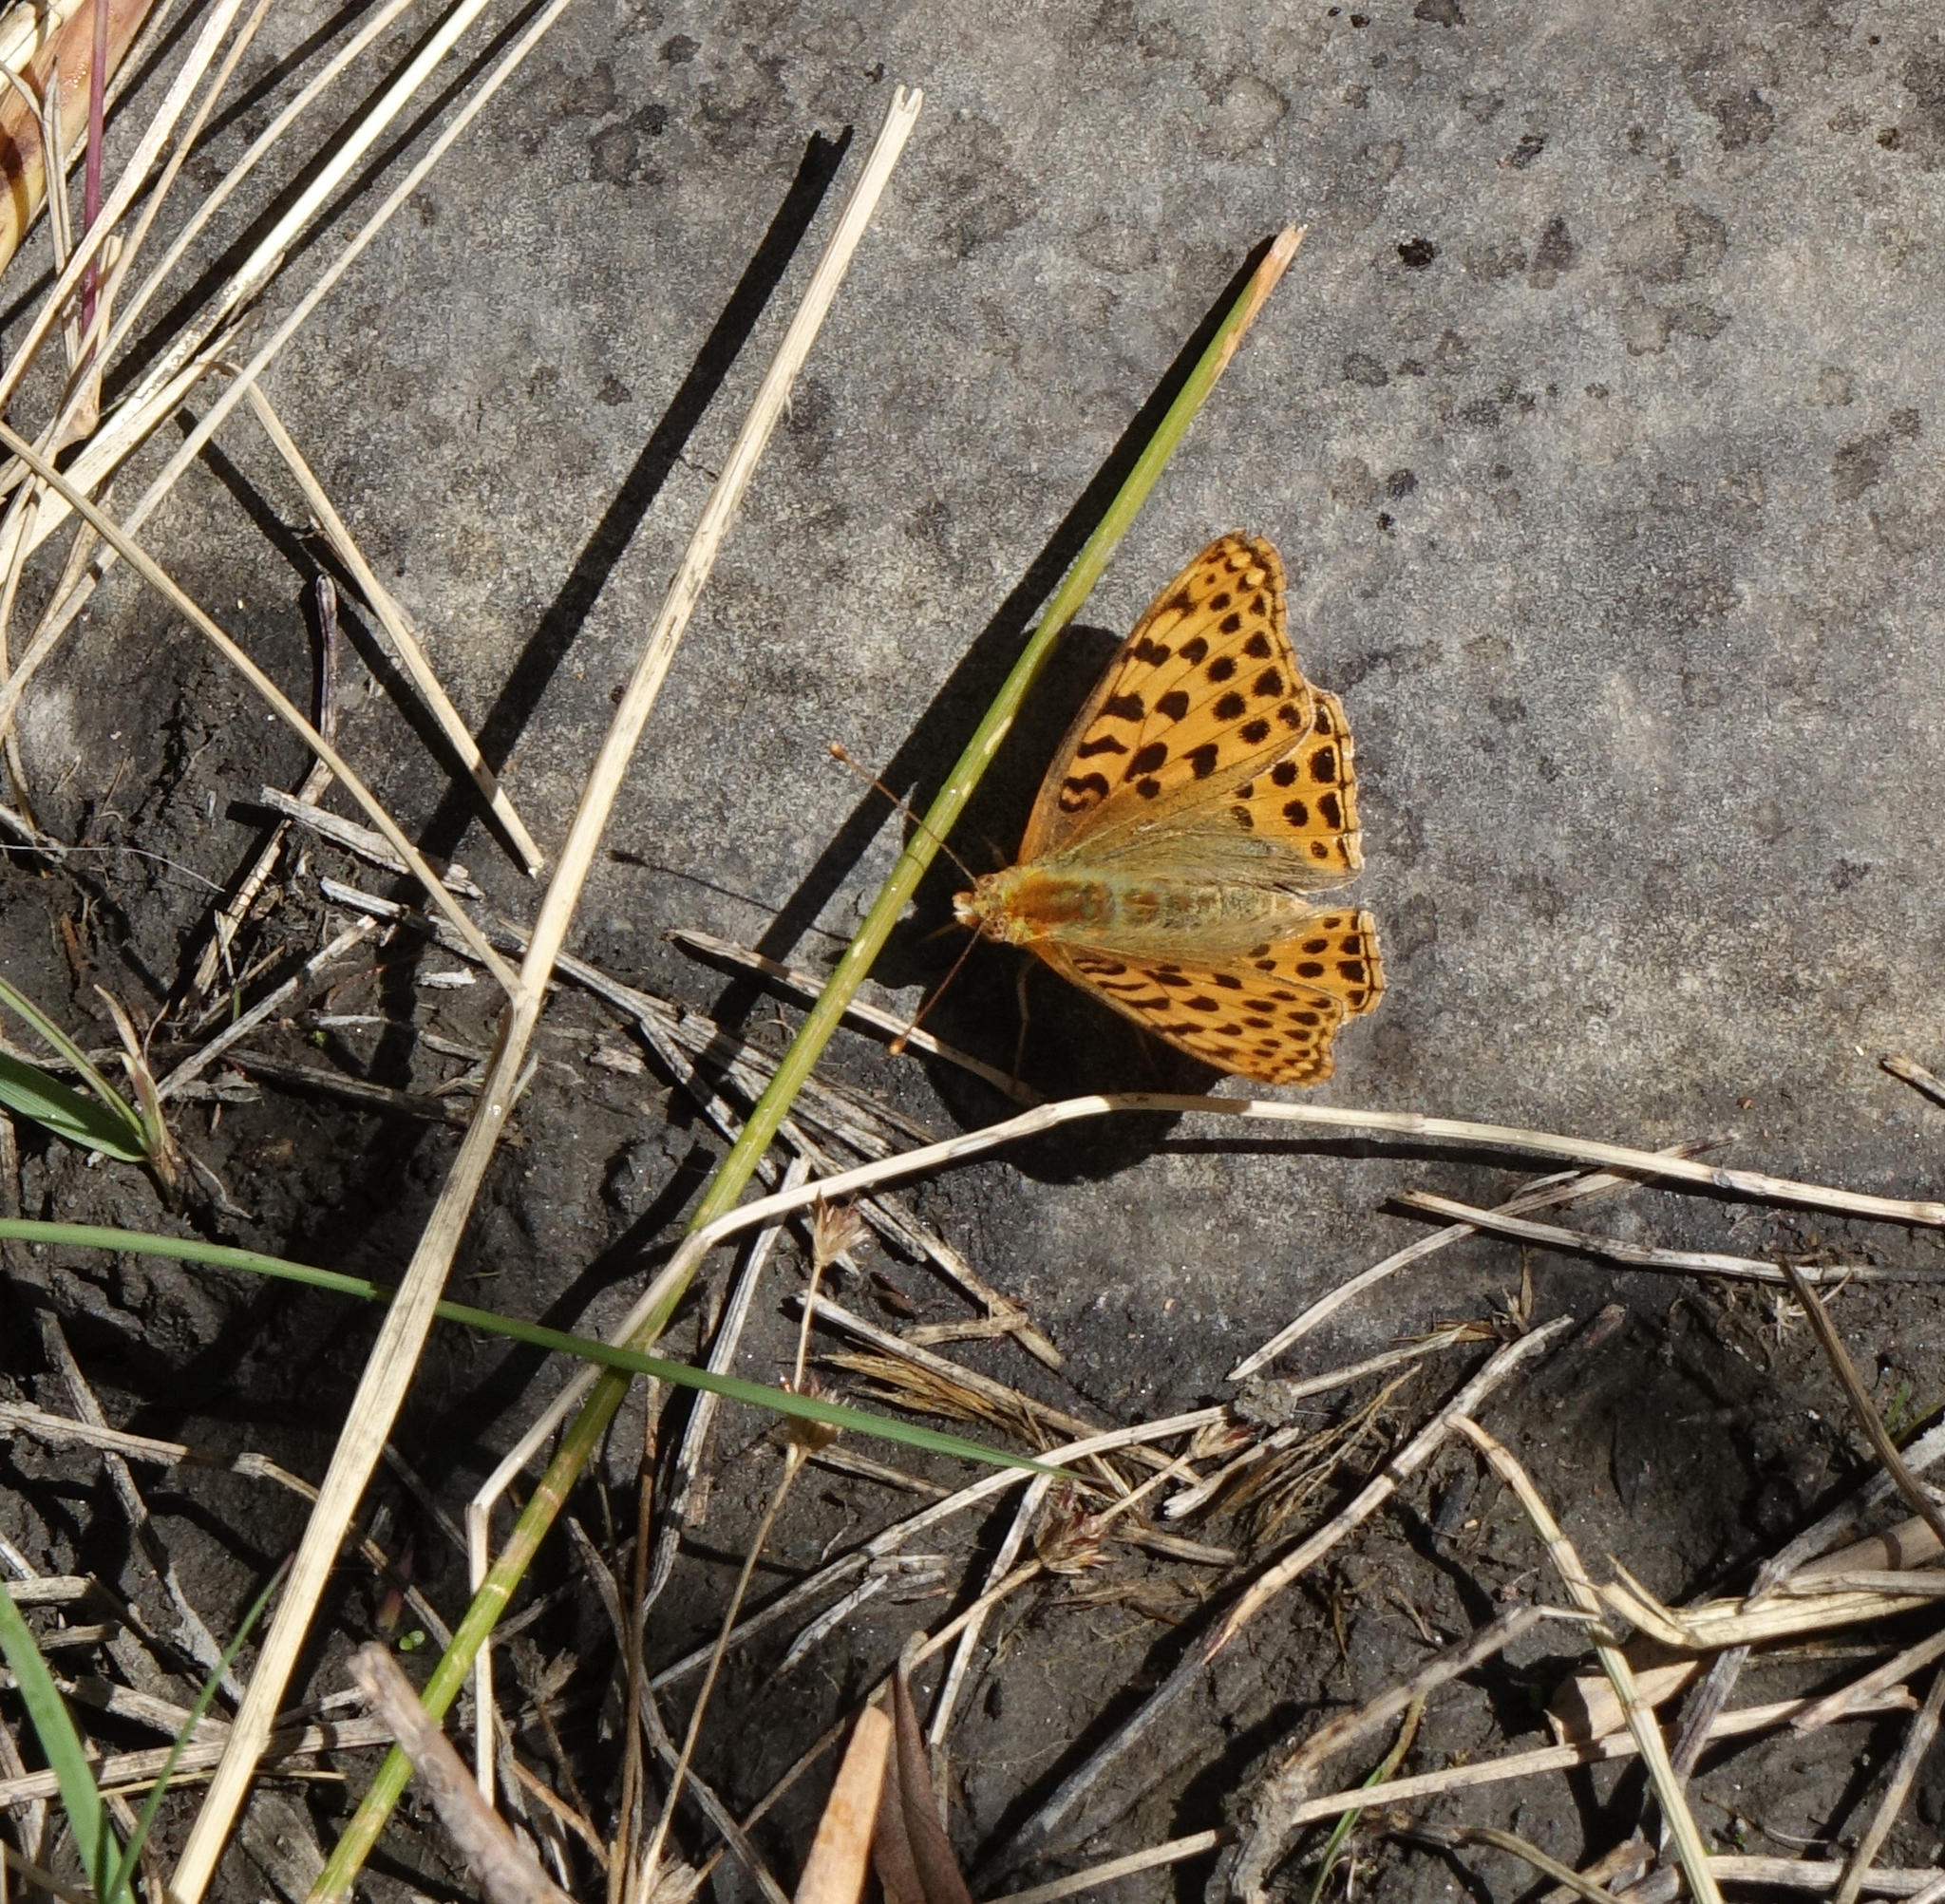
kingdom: Animalia
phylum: Arthropoda
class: Insecta
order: Lepidoptera
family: Nymphalidae
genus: Issoria
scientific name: Issoria lathonia
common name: Queen of spain fritillary
